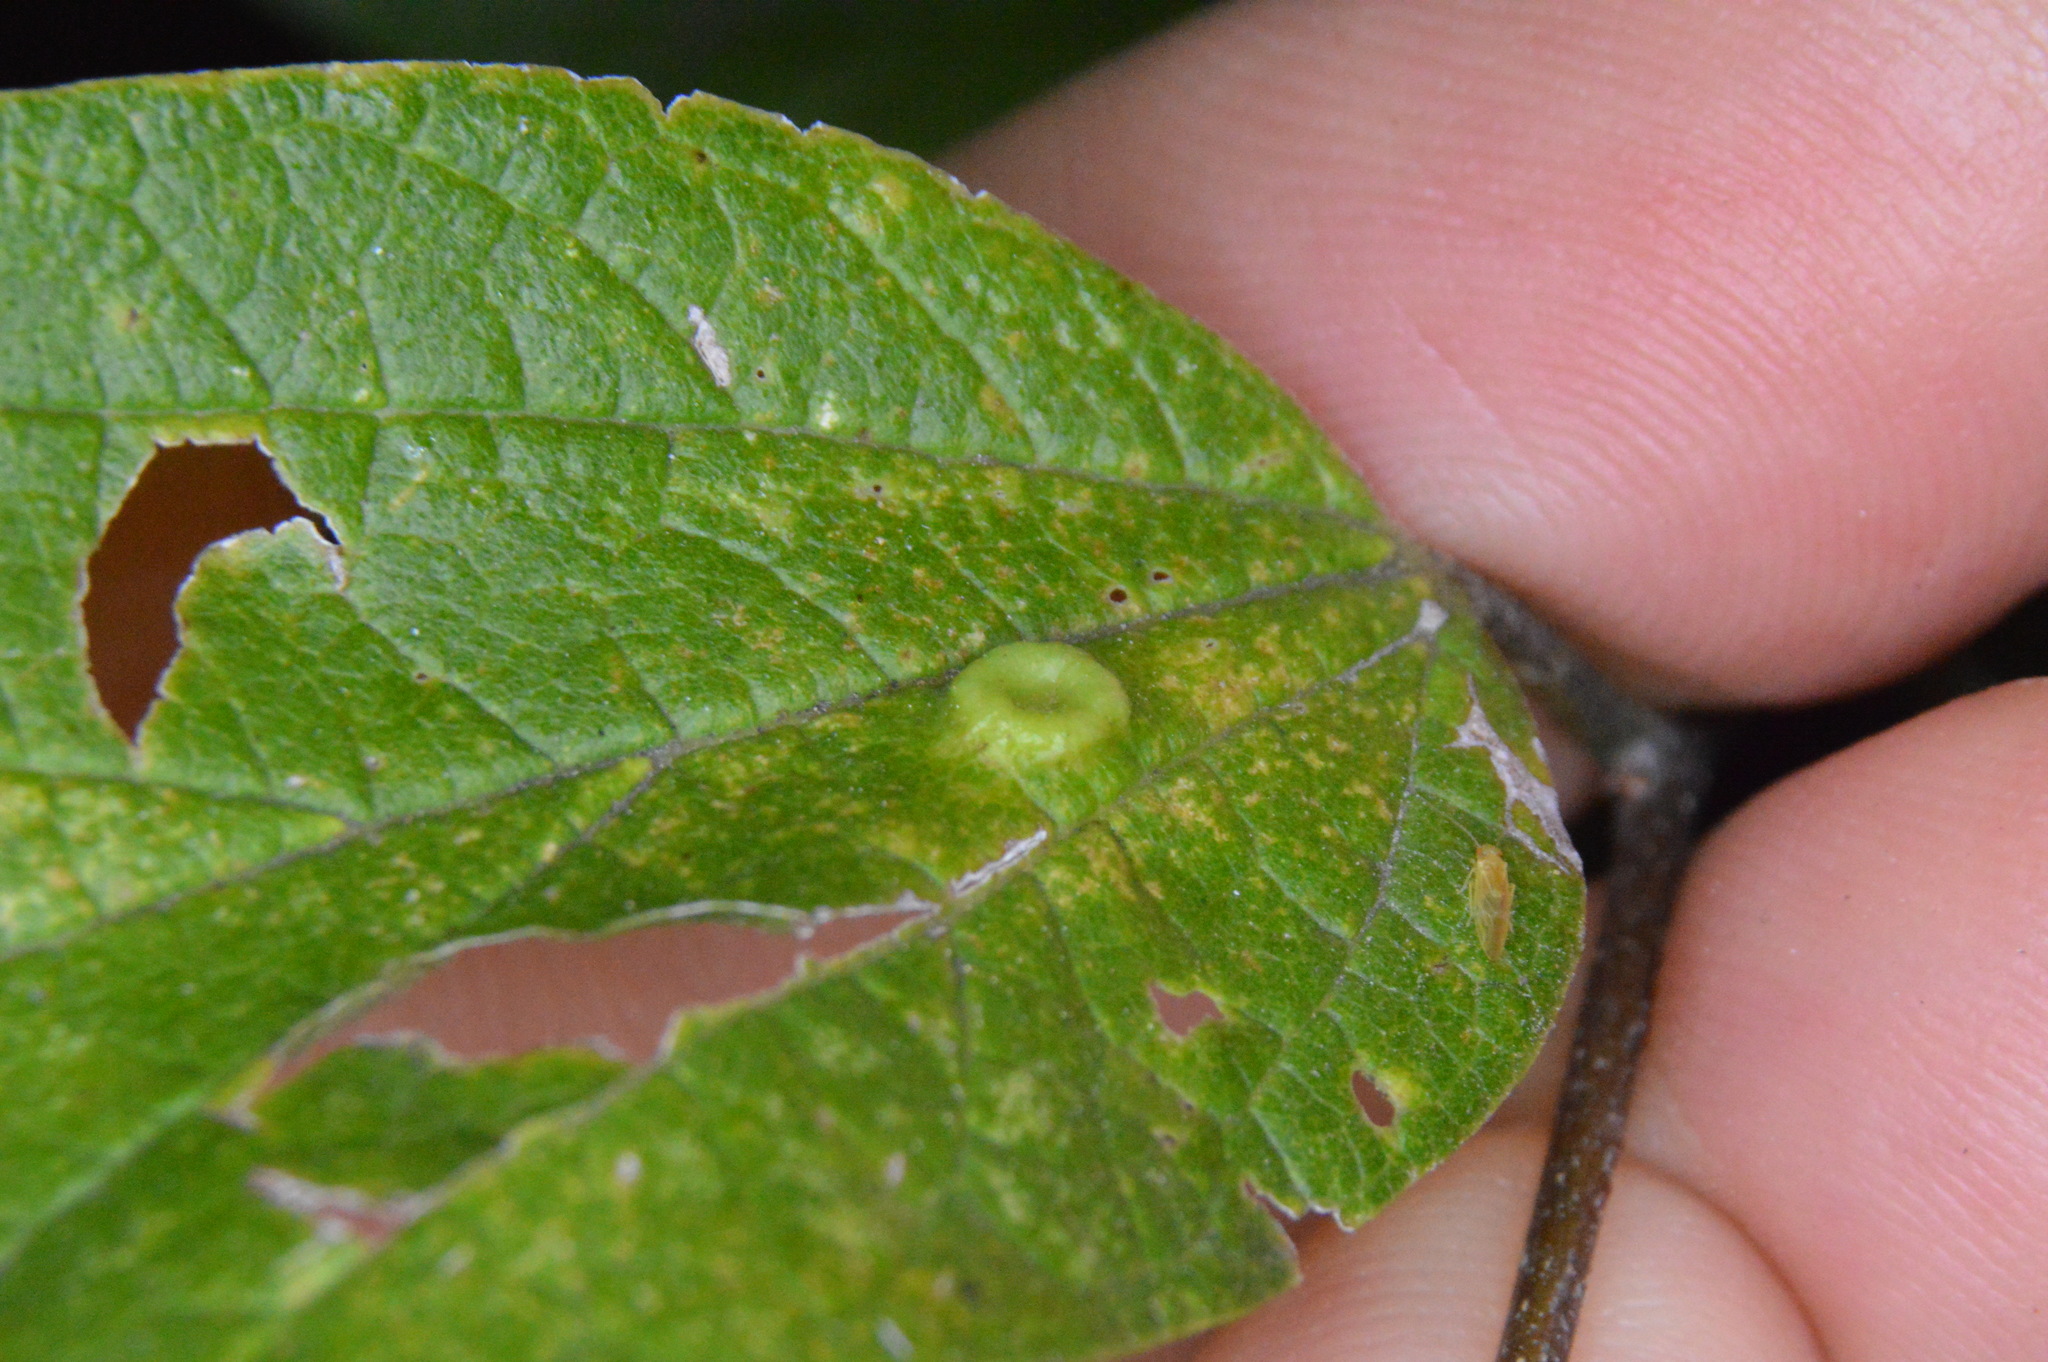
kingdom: Animalia
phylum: Arthropoda
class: Insecta
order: Hemiptera
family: Aphalaridae
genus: Pachypsylla
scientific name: Pachypsylla celtidismamma
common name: Hackberry nipplegall psyllid
